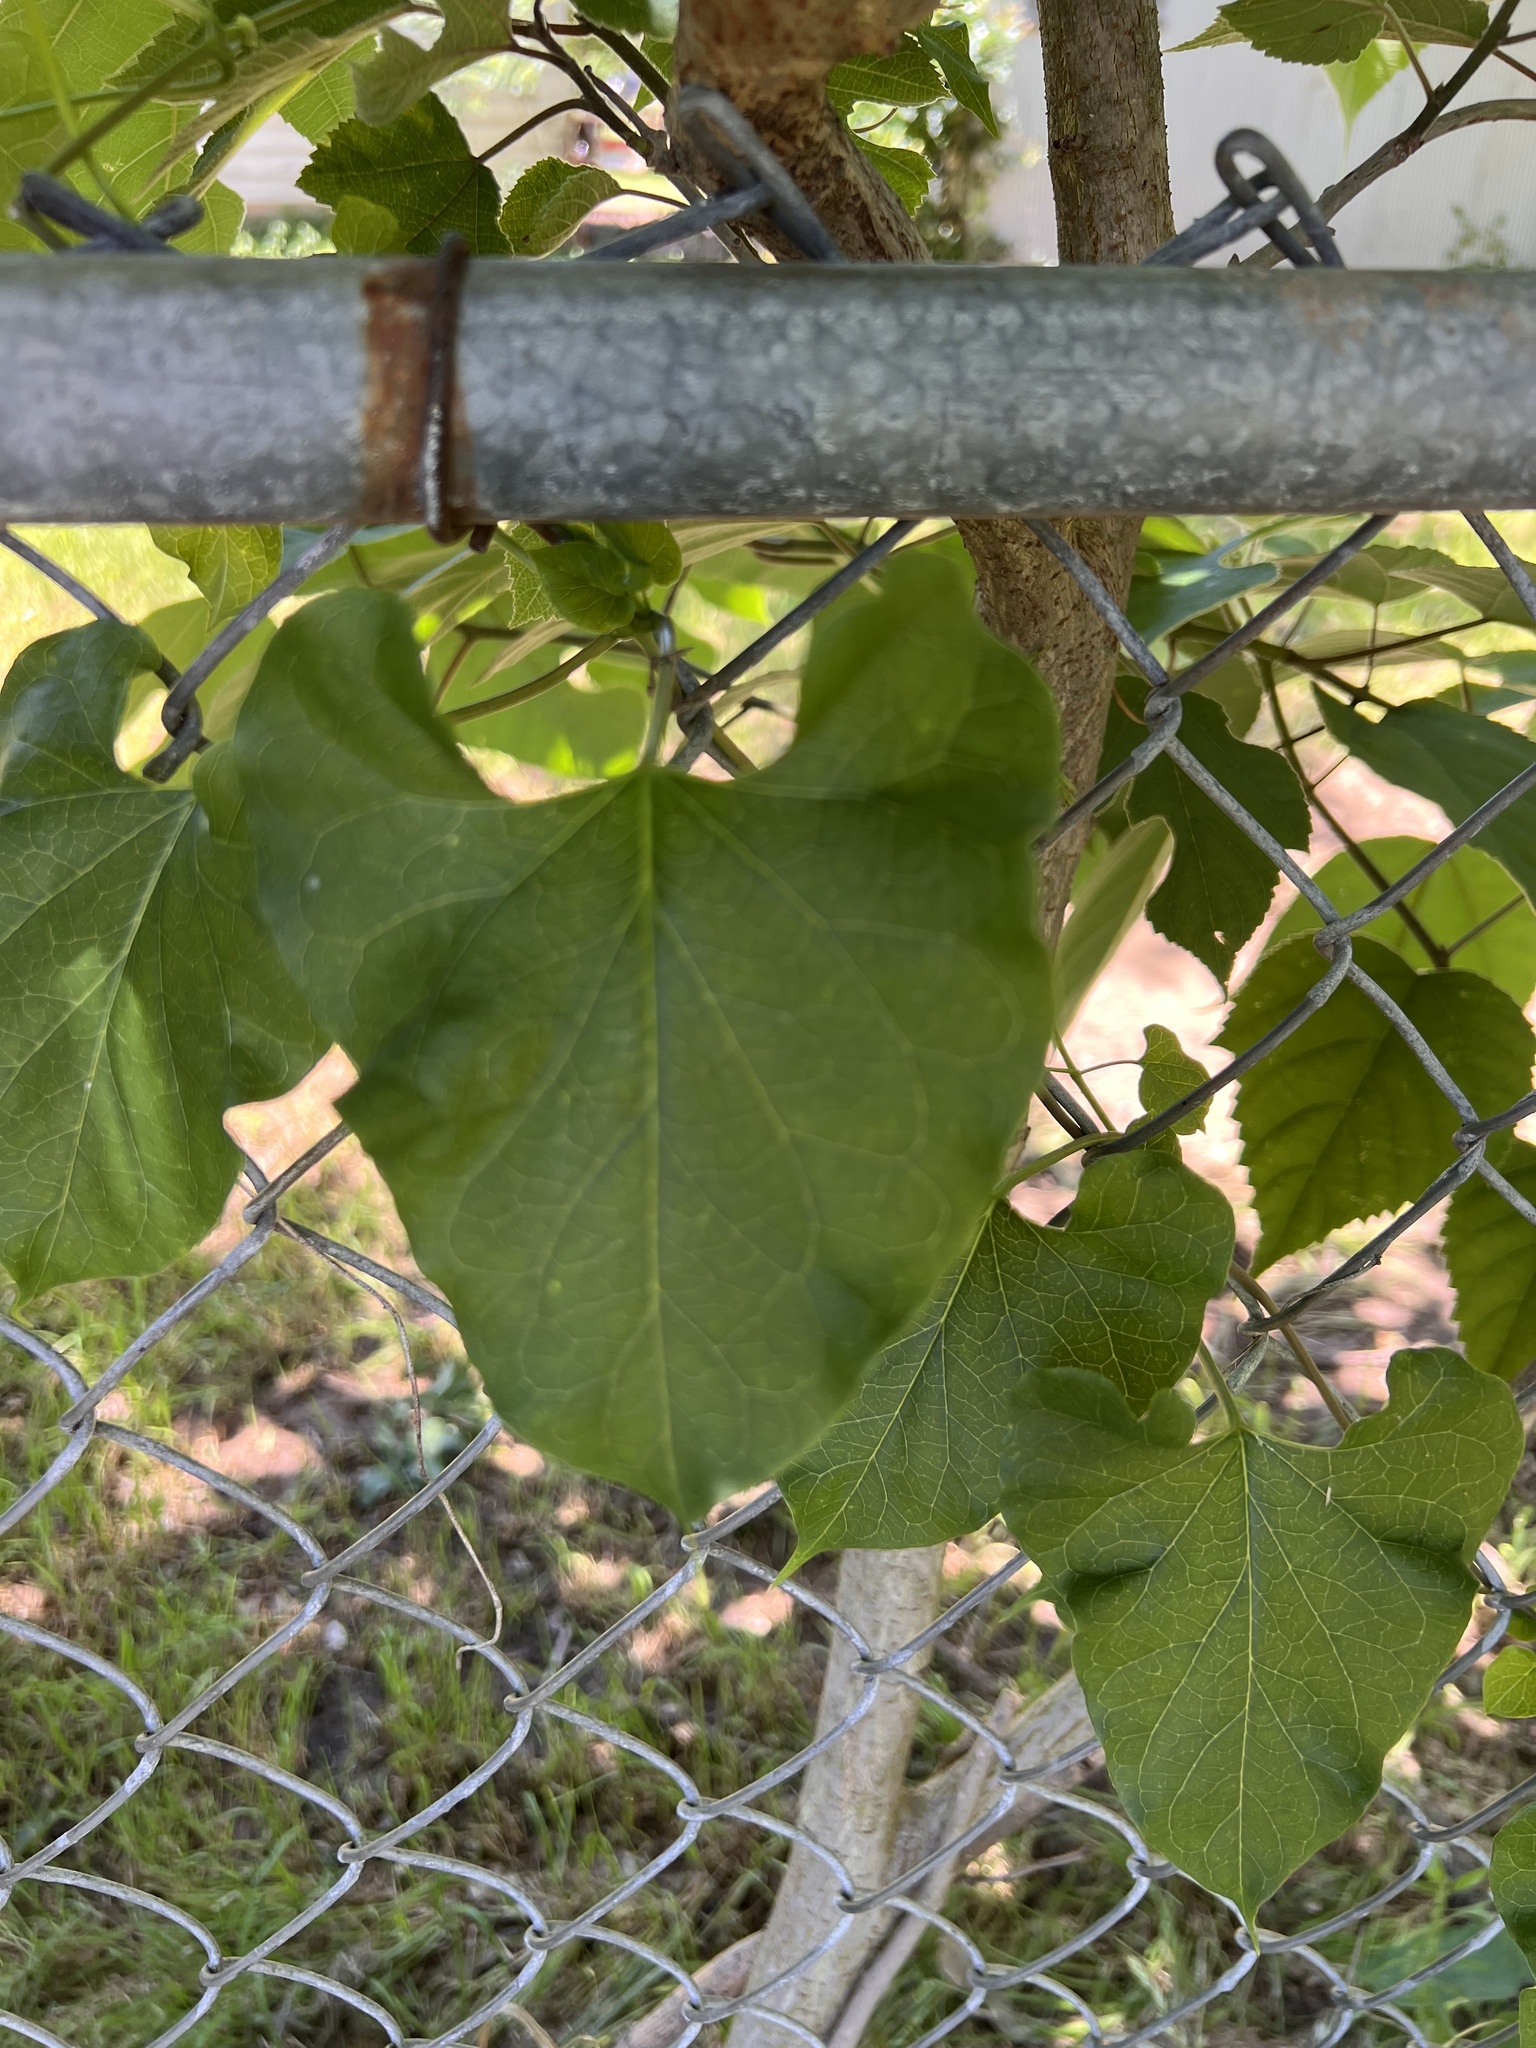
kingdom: Plantae
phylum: Tracheophyta
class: Magnoliopsida
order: Ranunculales
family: Menispermaceae
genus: Cocculus
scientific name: Cocculus carolinus
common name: Carolina moonseed
